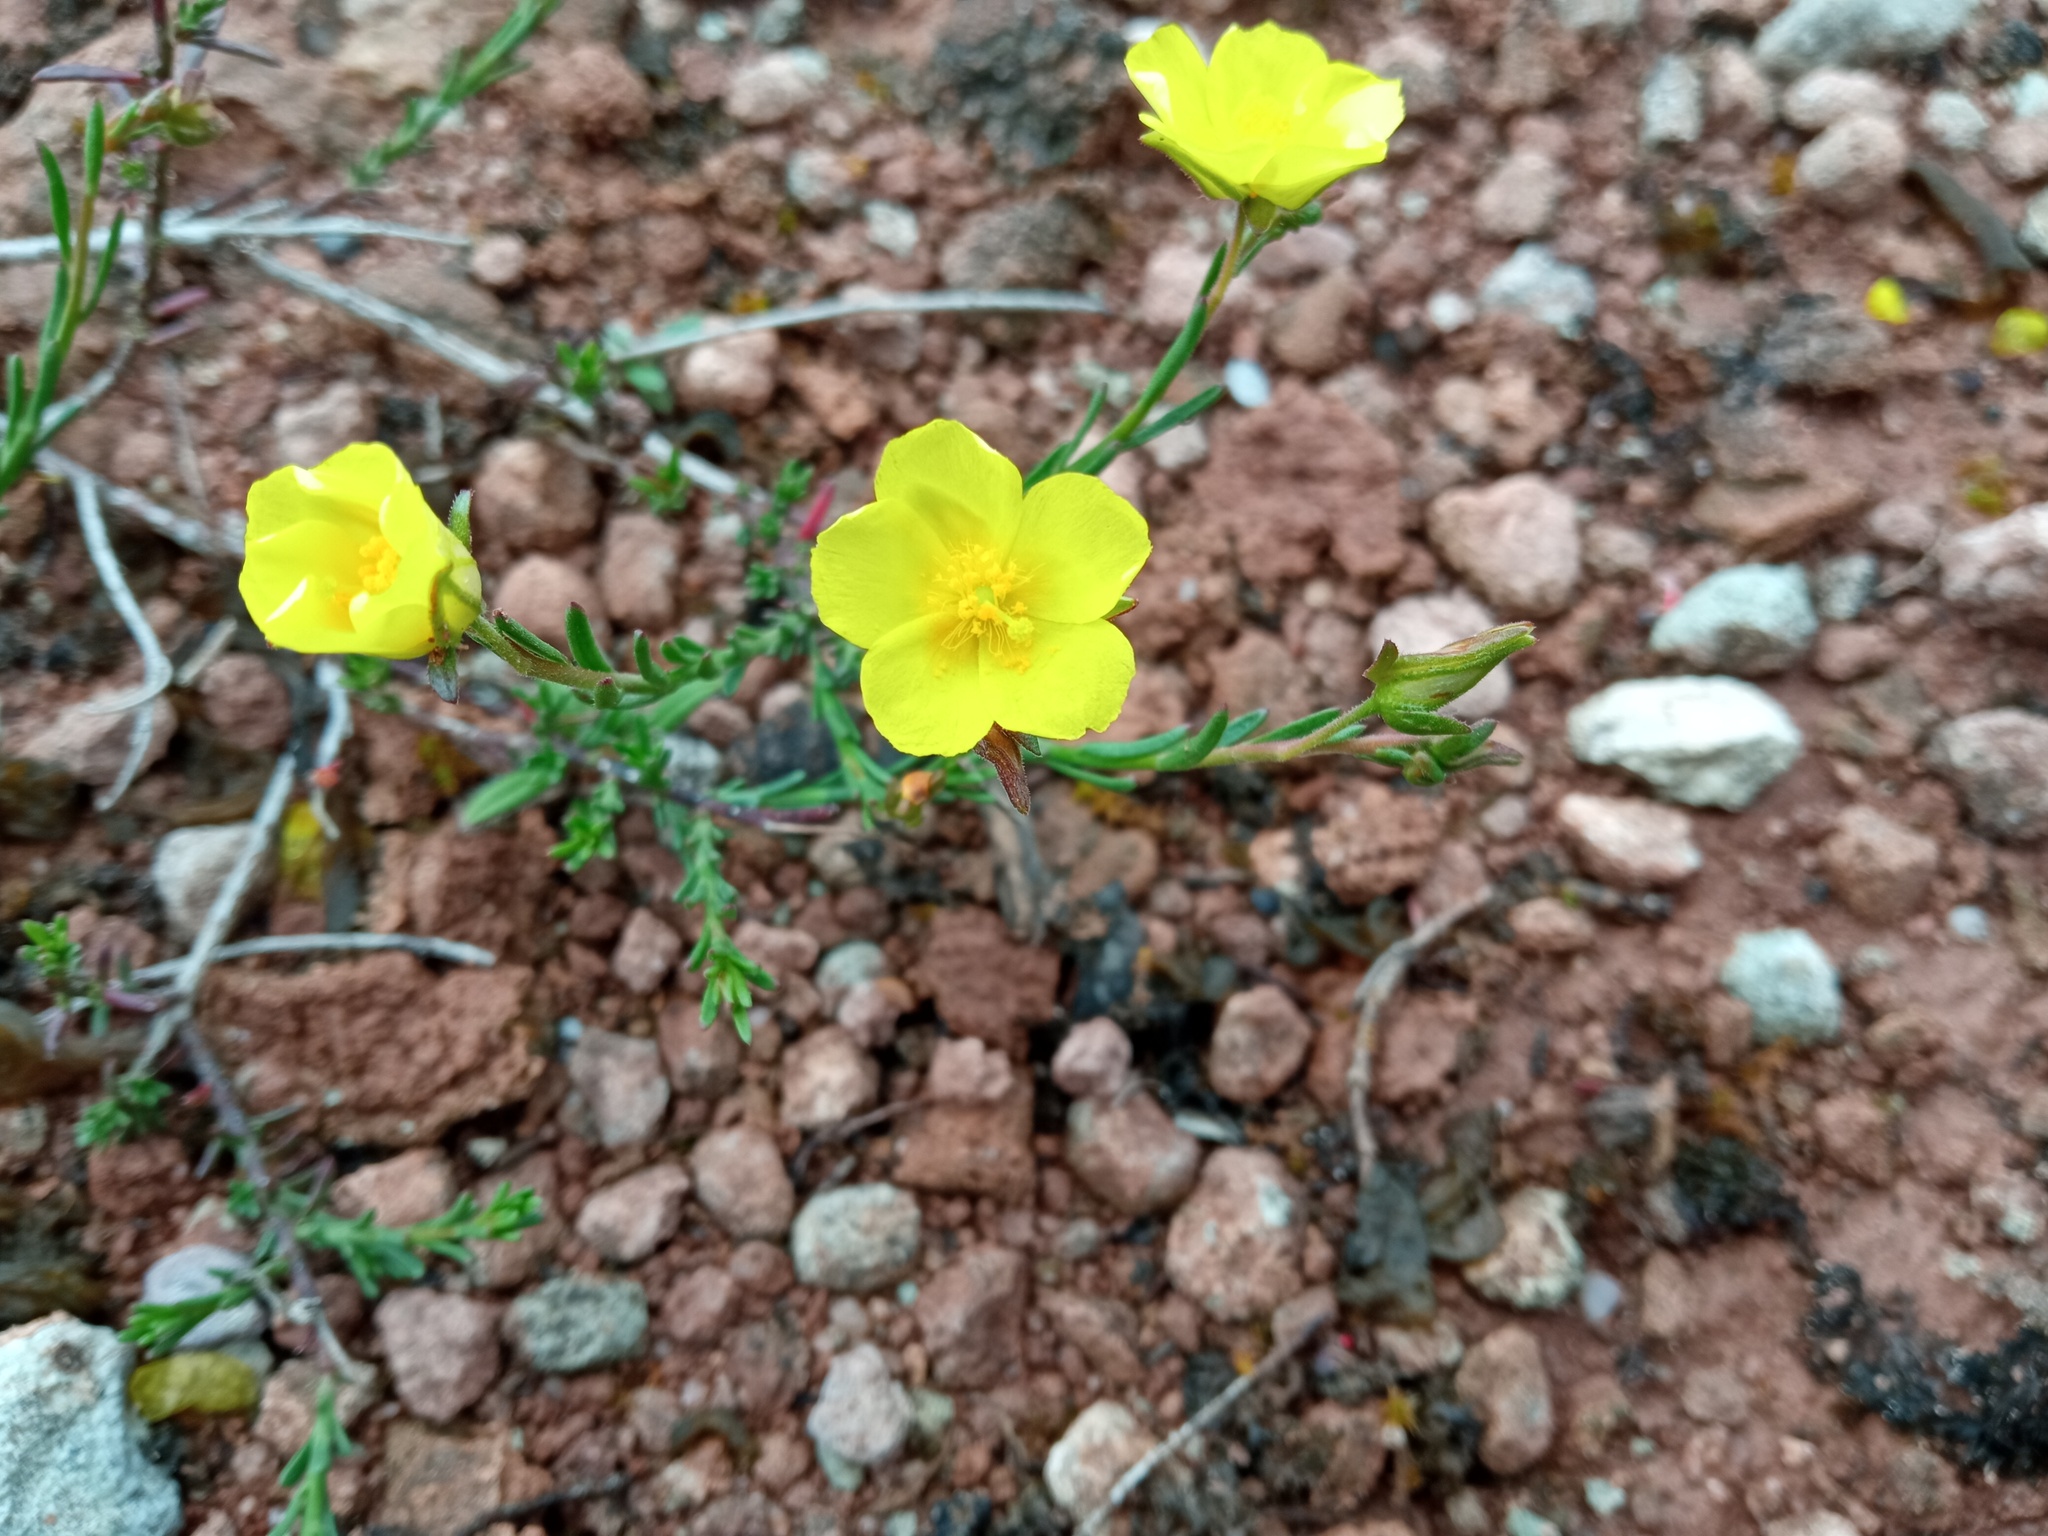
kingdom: Plantae
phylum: Tracheophyta
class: Magnoliopsida
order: Malvales
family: Cistaceae
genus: Fumana
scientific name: Fumana ericifolia
